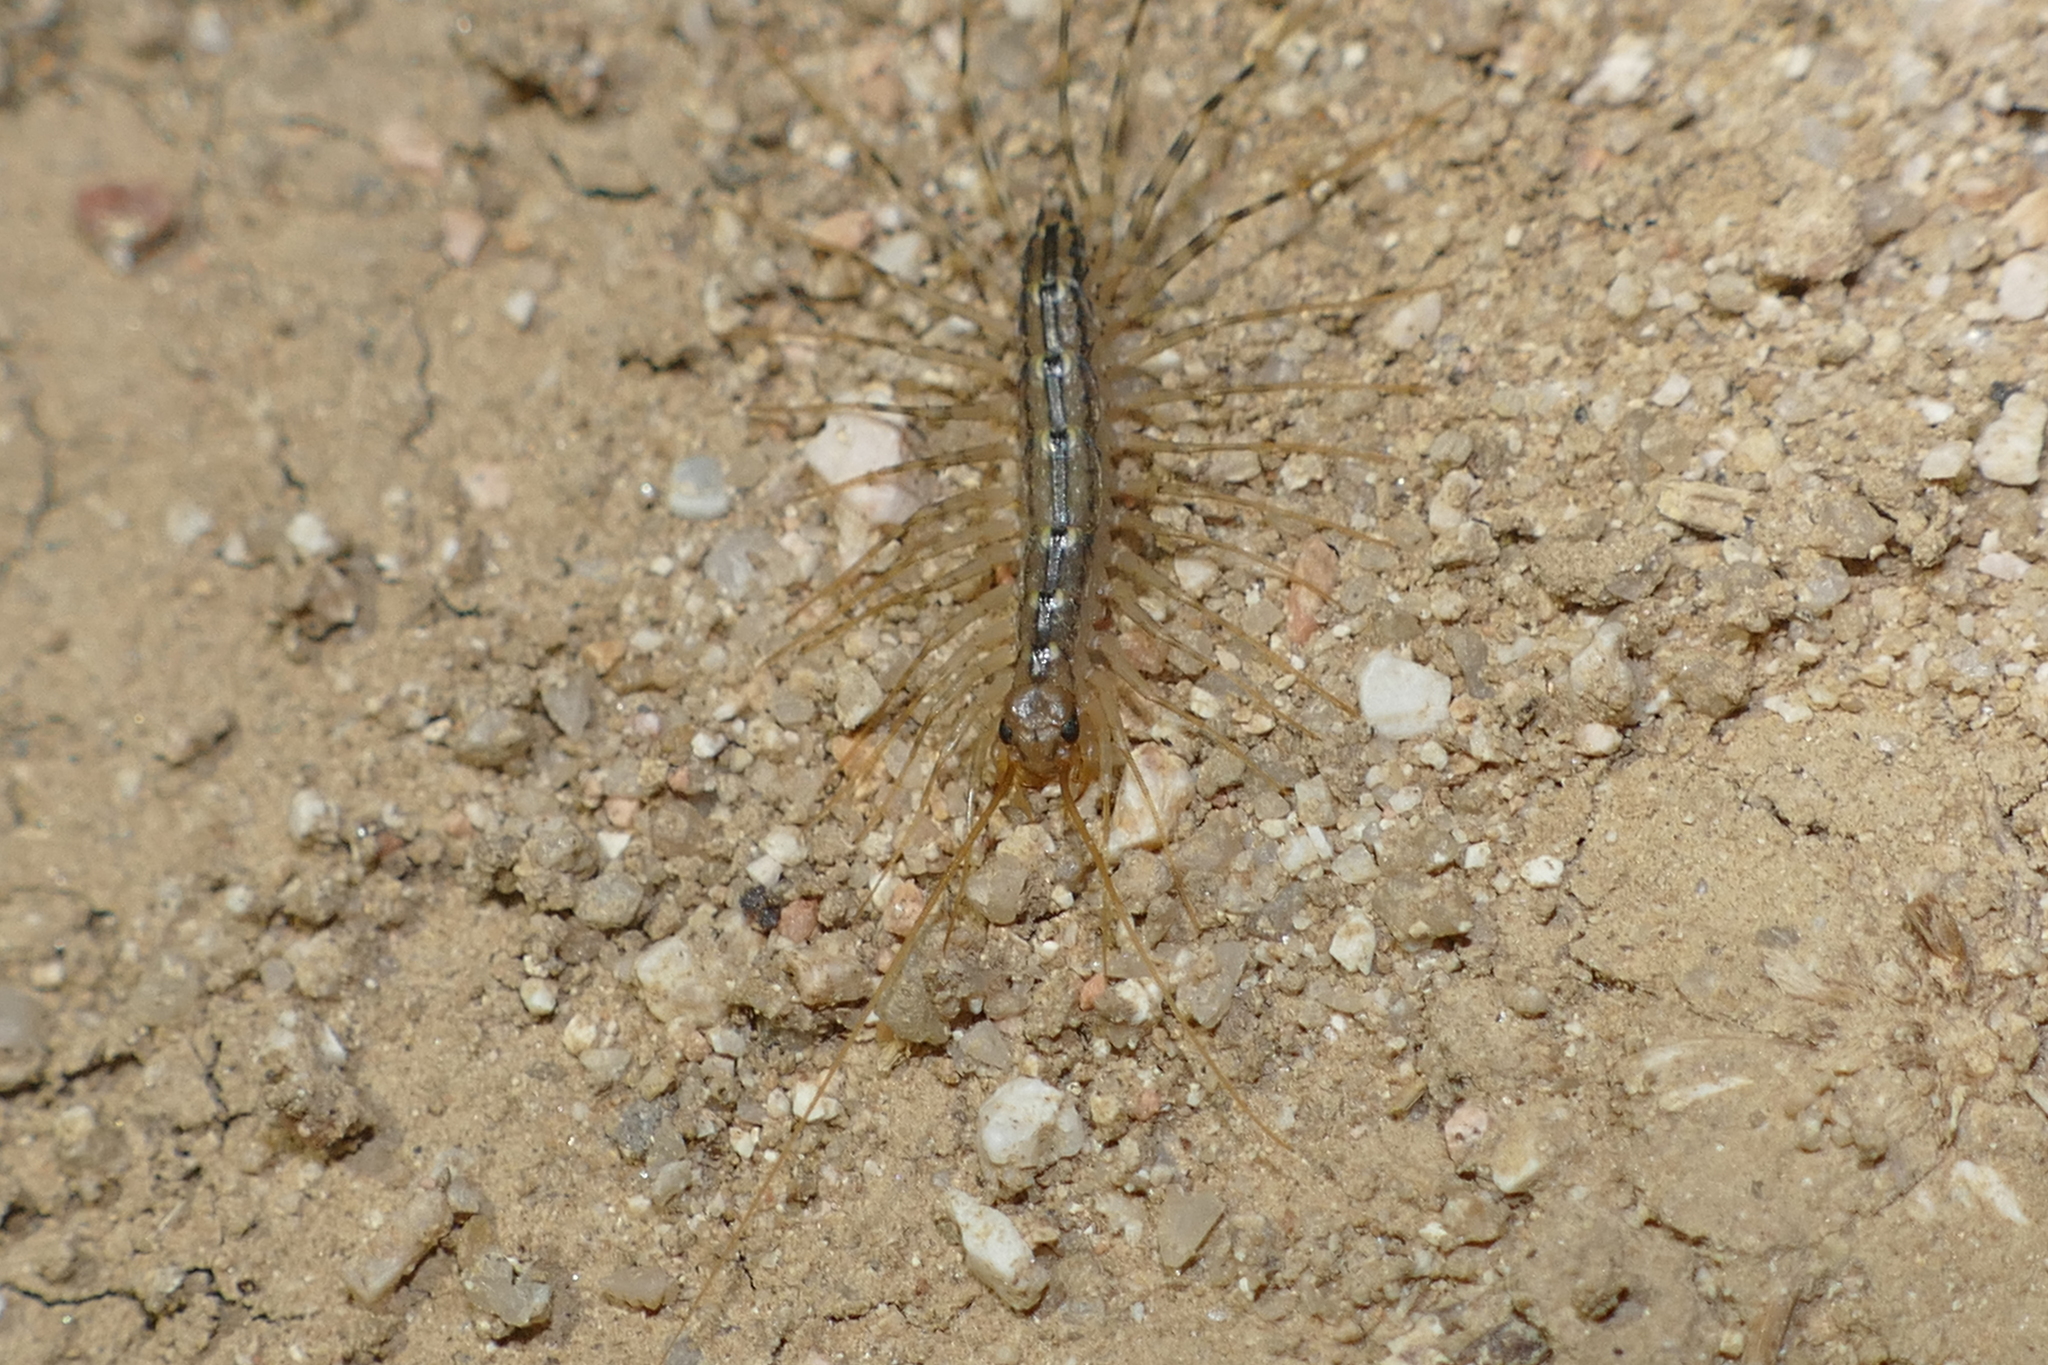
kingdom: Animalia
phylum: Arthropoda
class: Chilopoda
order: Scutigeromorpha
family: Scutigeridae
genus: Scutigera
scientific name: Scutigera coleoptrata
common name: House centipede
